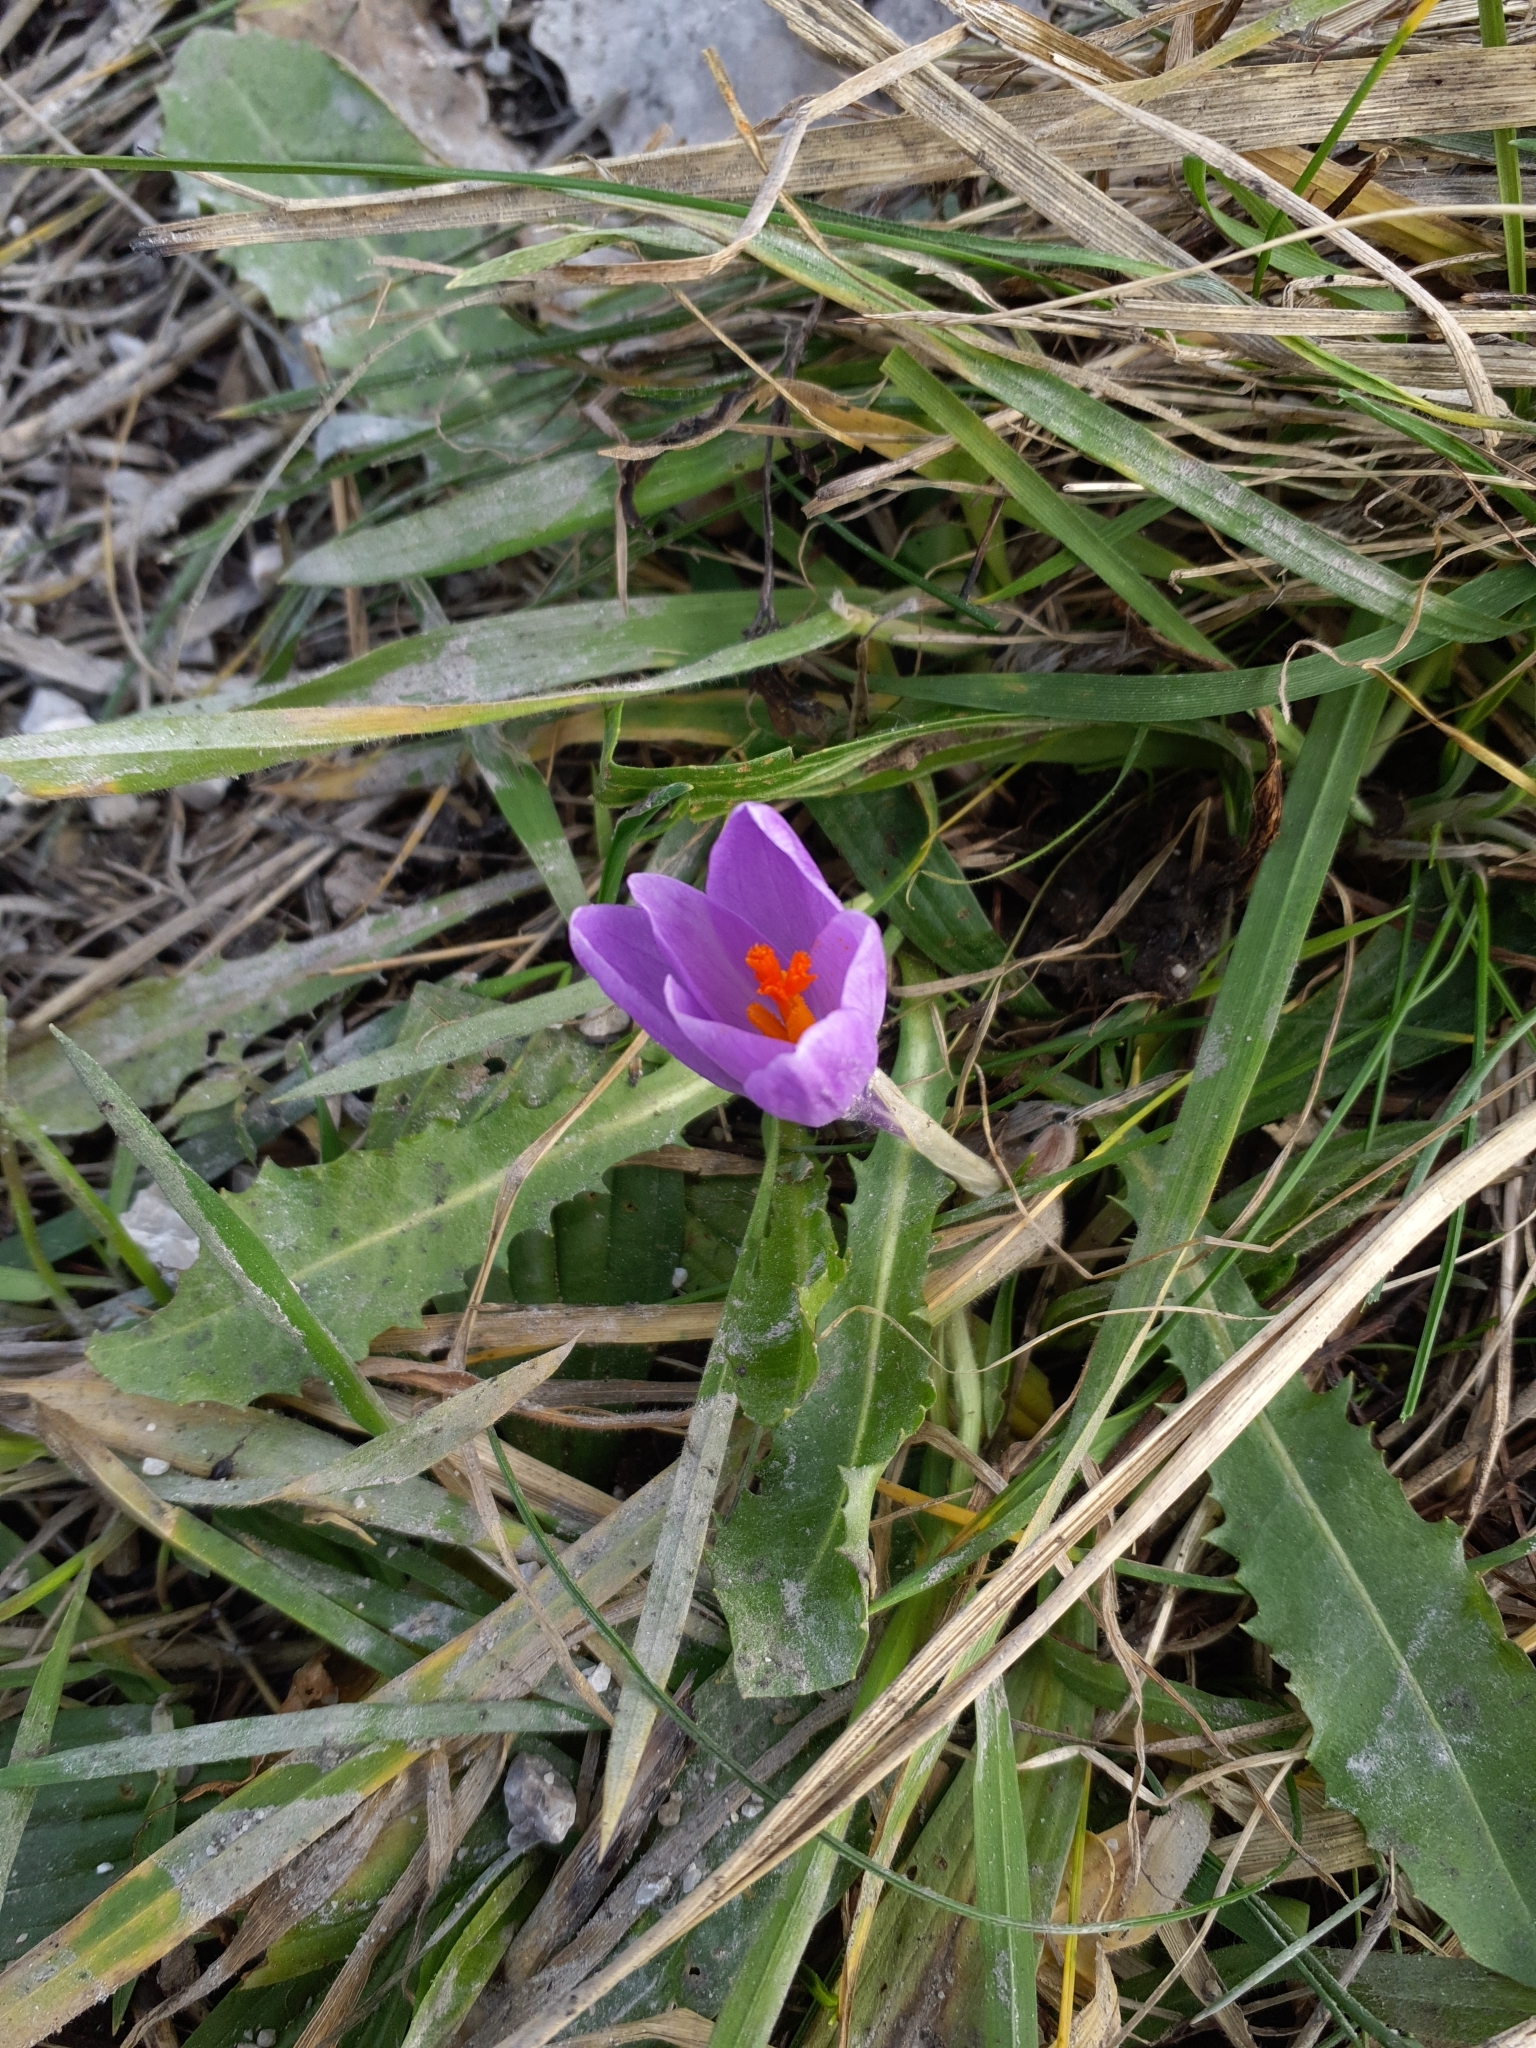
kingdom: Plantae
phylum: Tracheophyta
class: Liliopsida
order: Asparagales
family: Iridaceae
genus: Crocus
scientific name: Crocus heuffelianus
